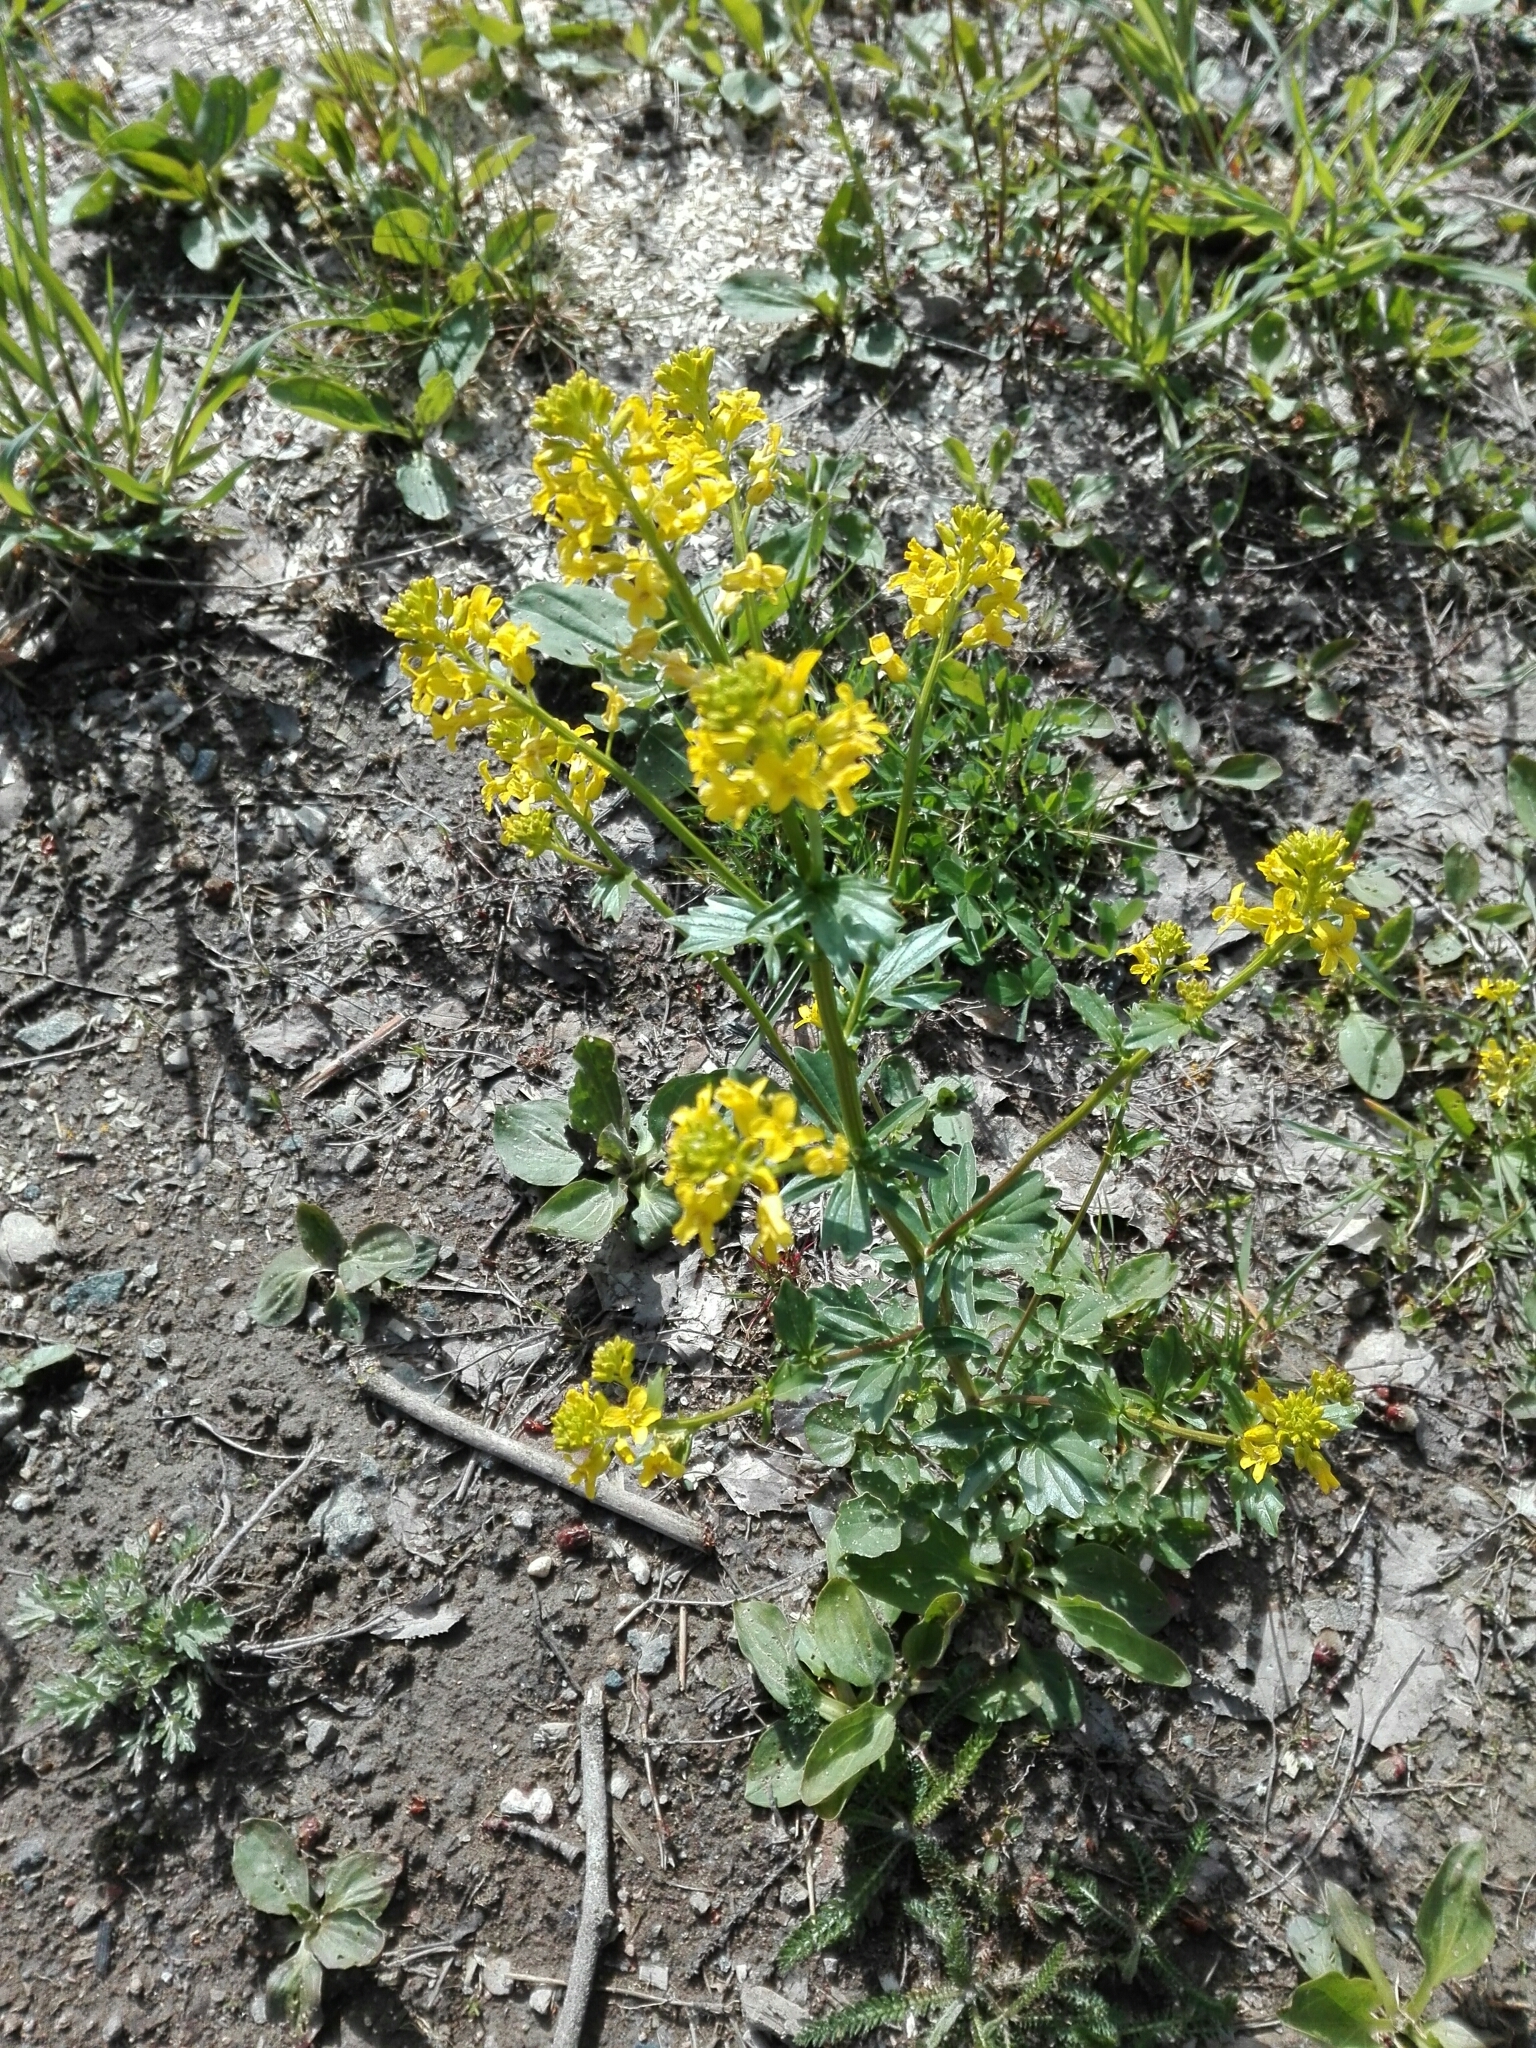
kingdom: Plantae
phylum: Tracheophyta
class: Magnoliopsida
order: Brassicales
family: Brassicaceae
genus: Barbarea
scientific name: Barbarea vulgaris
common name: Cressy-greens
